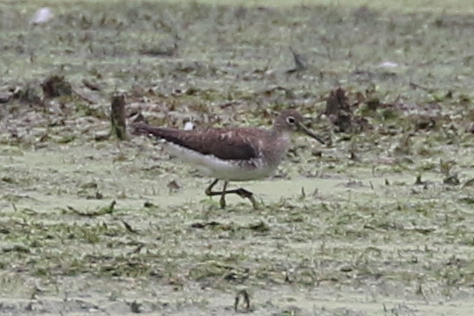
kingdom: Animalia
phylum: Chordata
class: Aves
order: Charadriiformes
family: Scolopacidae
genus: Tringa
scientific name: Tringa solitaria
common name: Solitary sandpiper
